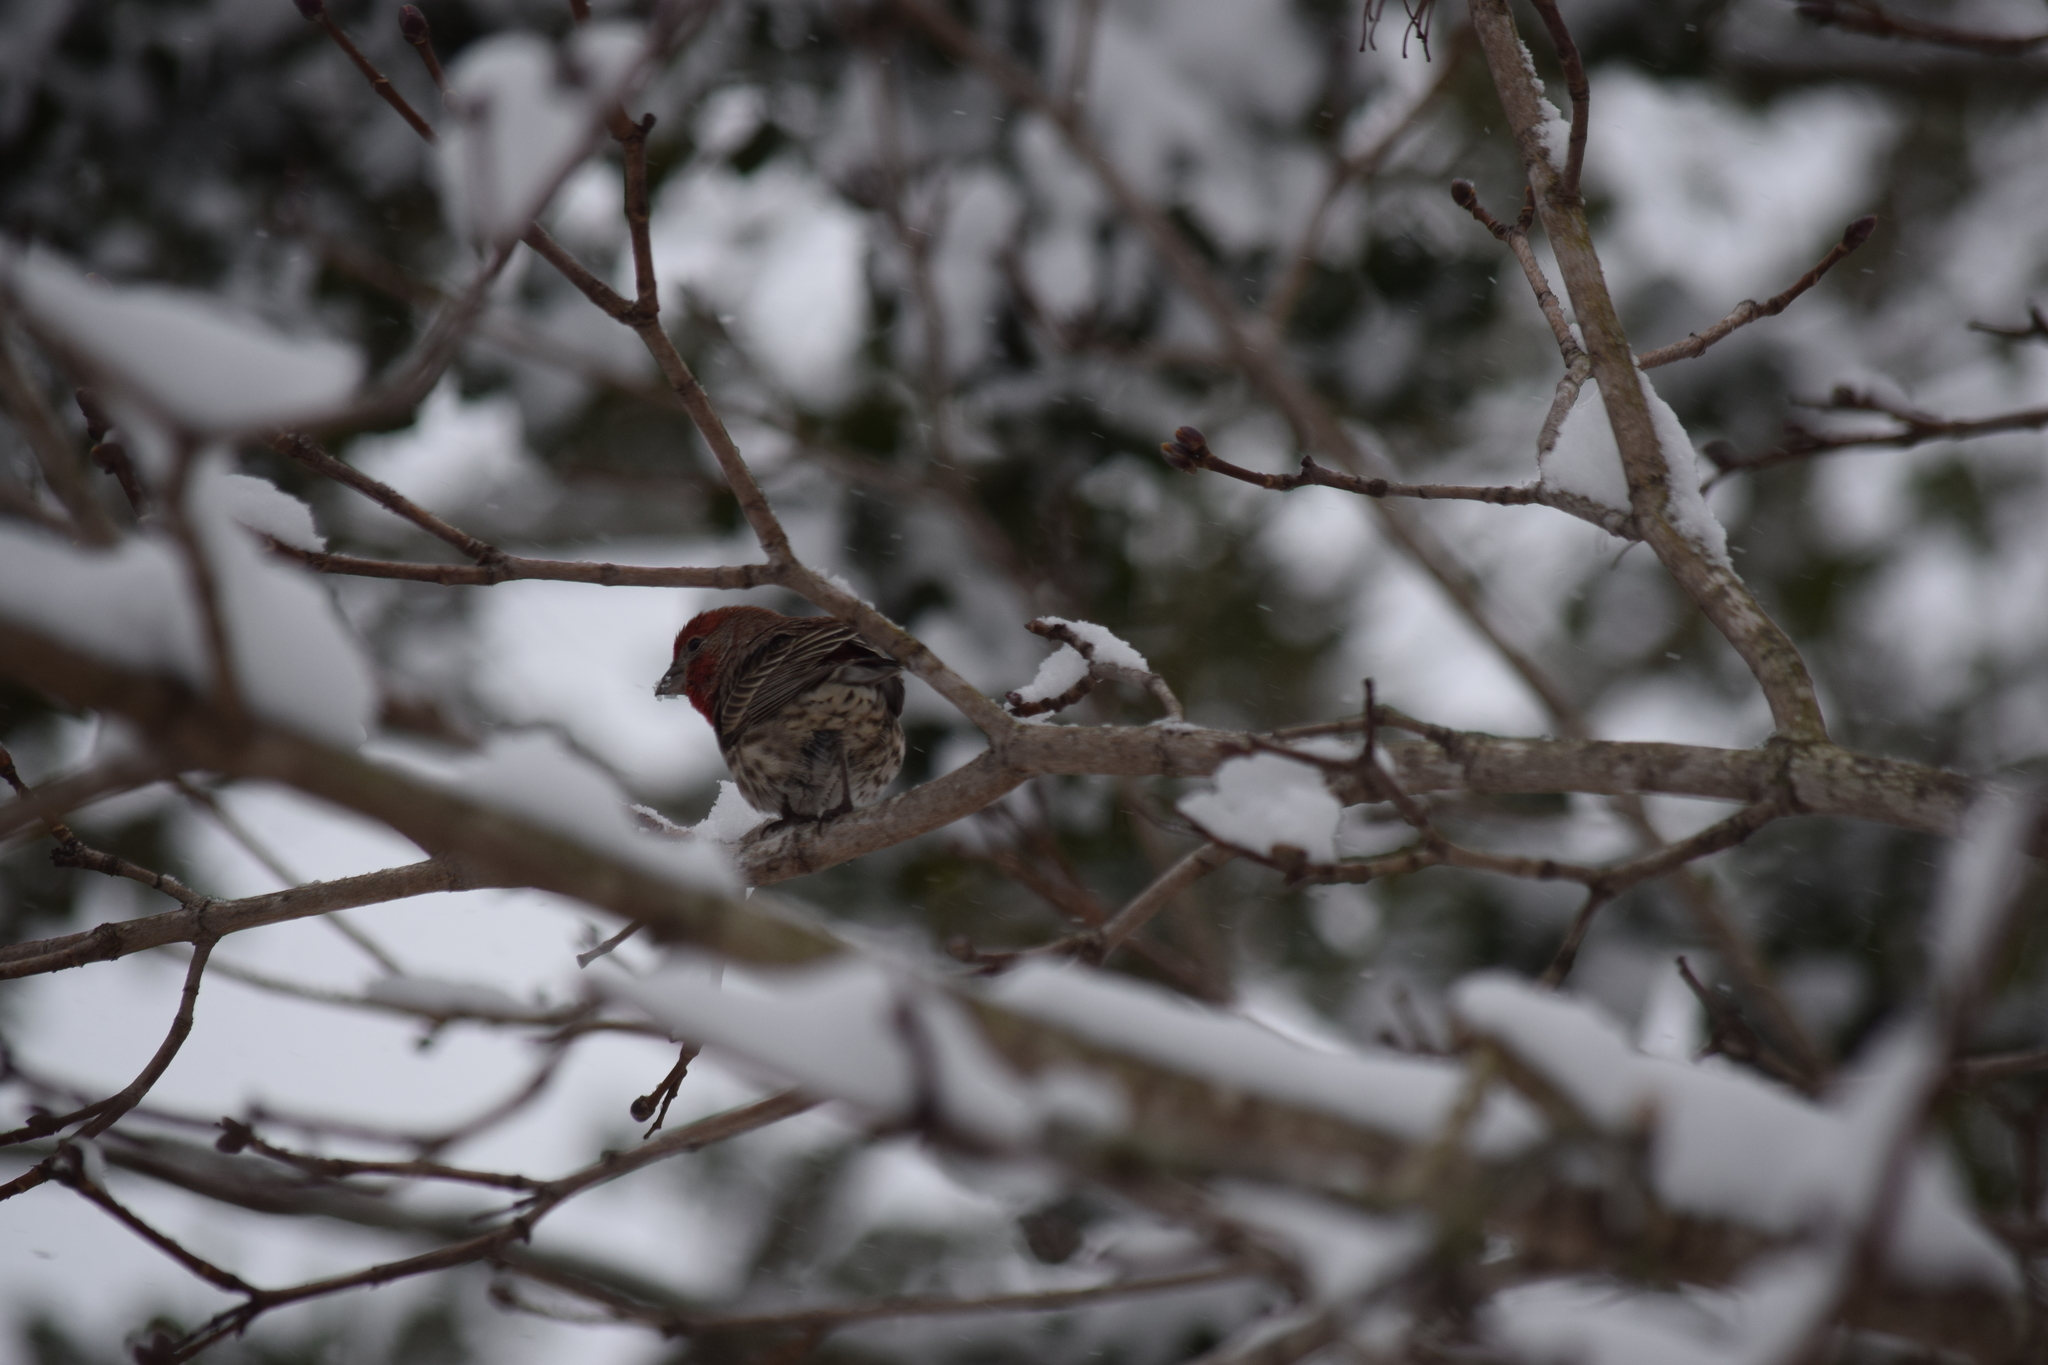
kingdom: Animalia
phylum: Chordata
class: Aves
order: Passeriformes
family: Fringillidae
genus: Haemorhous
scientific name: Haemorhous mexicanus
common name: House finch
